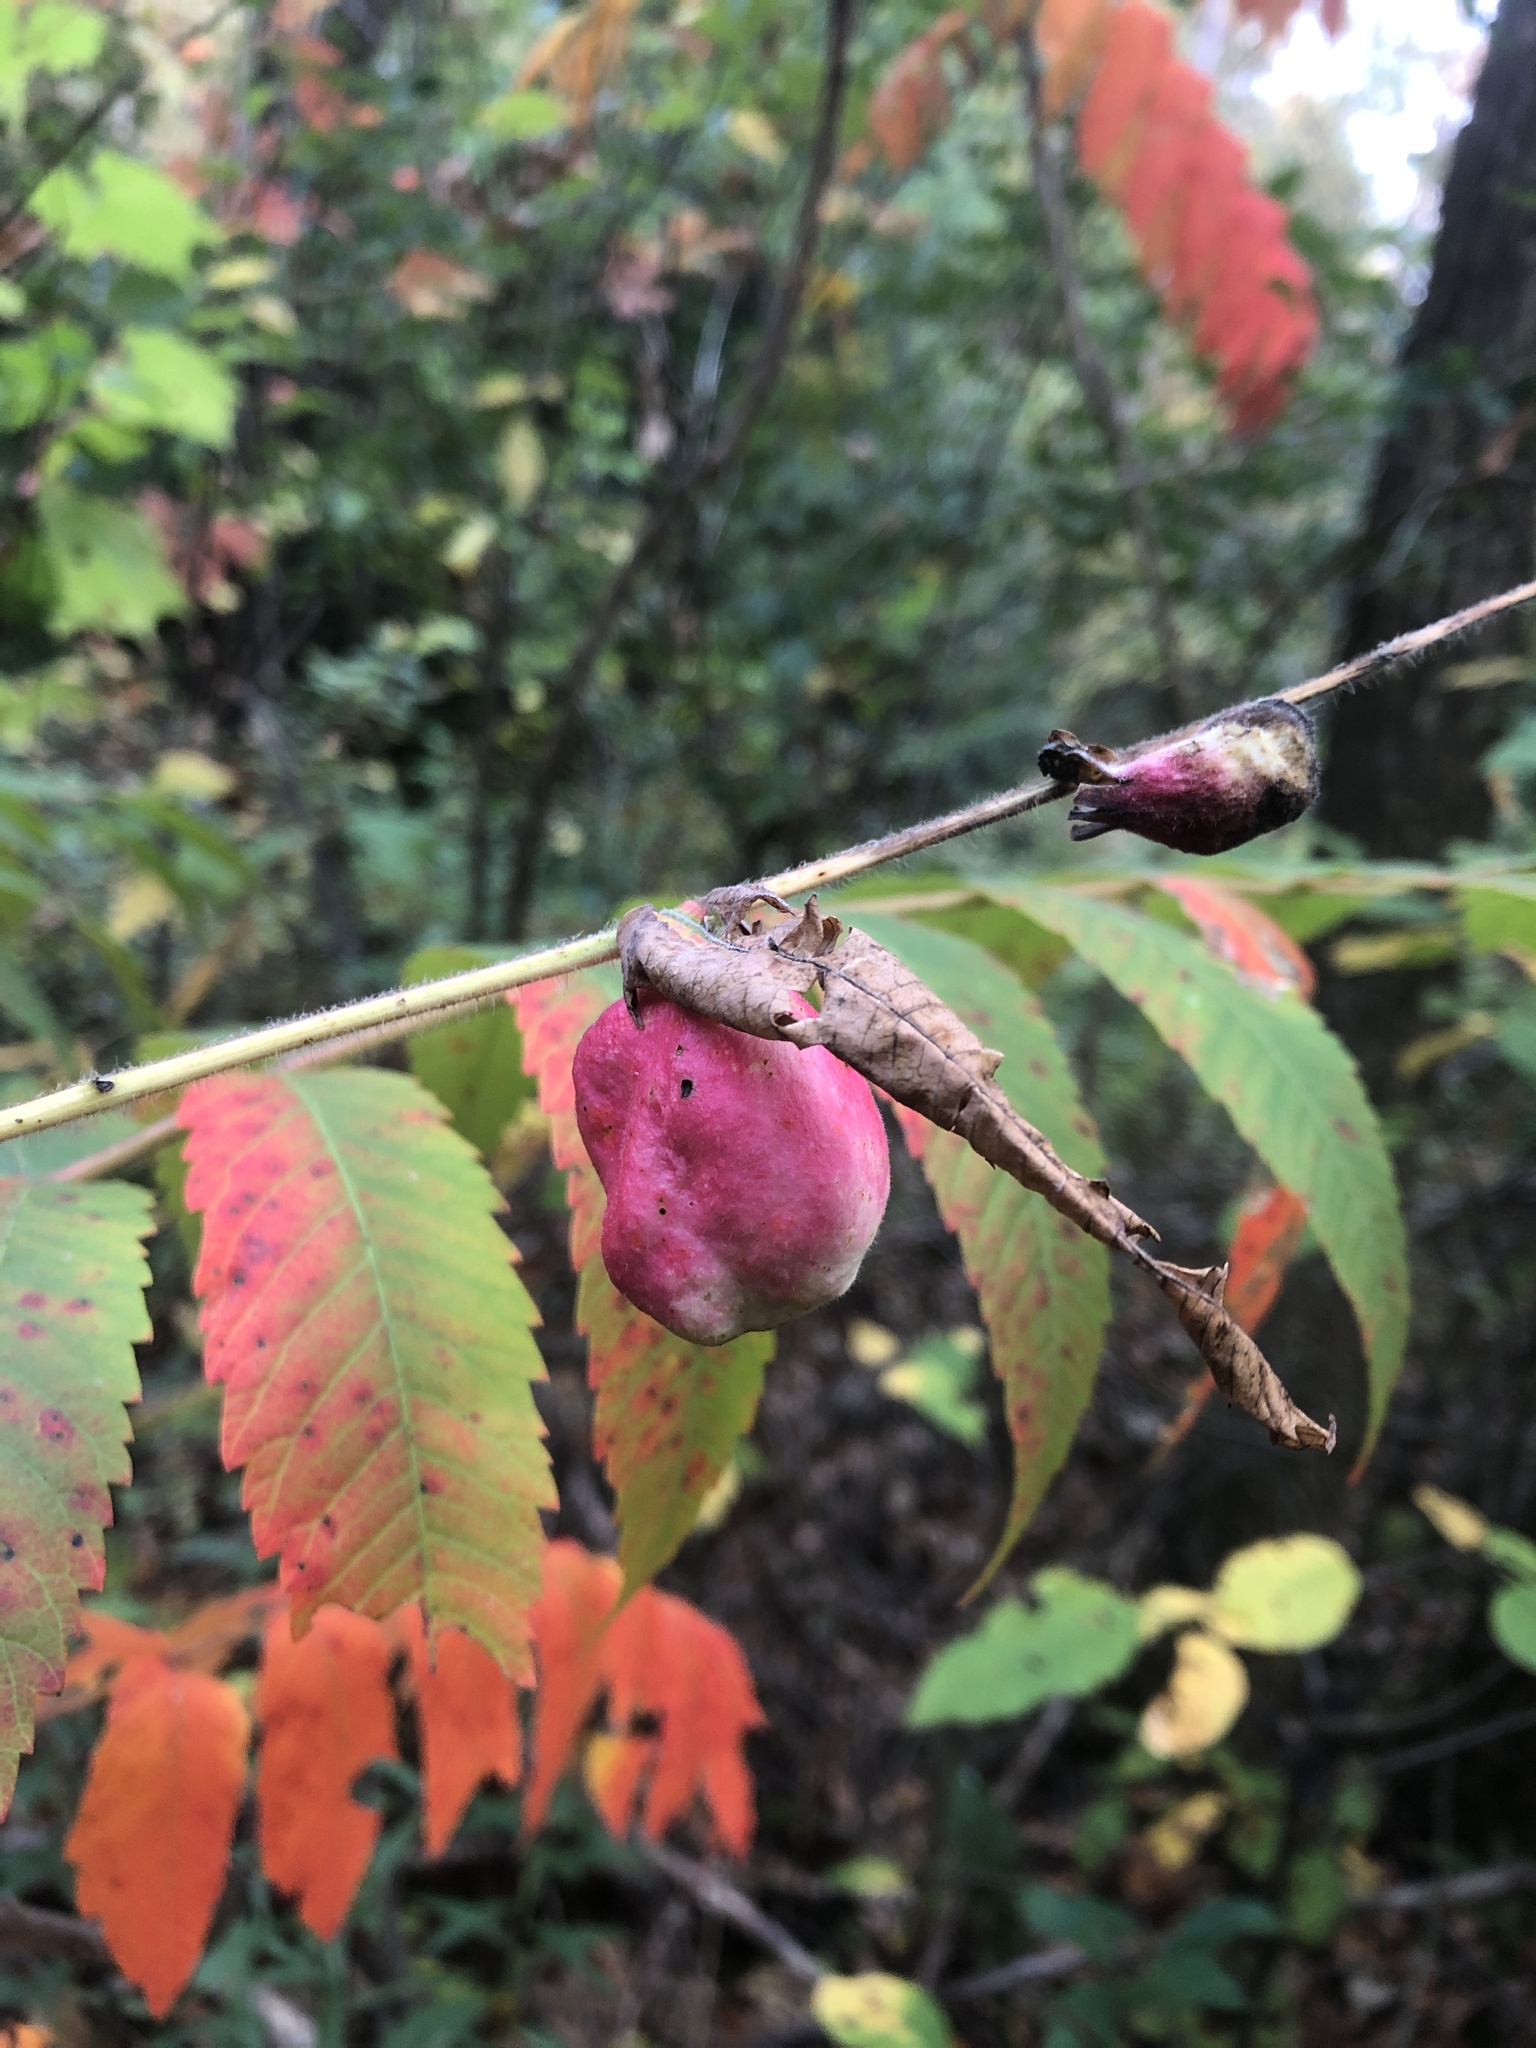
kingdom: Animalia
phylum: Arthropoda
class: Insecta
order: Hemiptera
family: Aphididae
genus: Melaphis
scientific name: Melaphis rhois
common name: Sumac gall aphid
